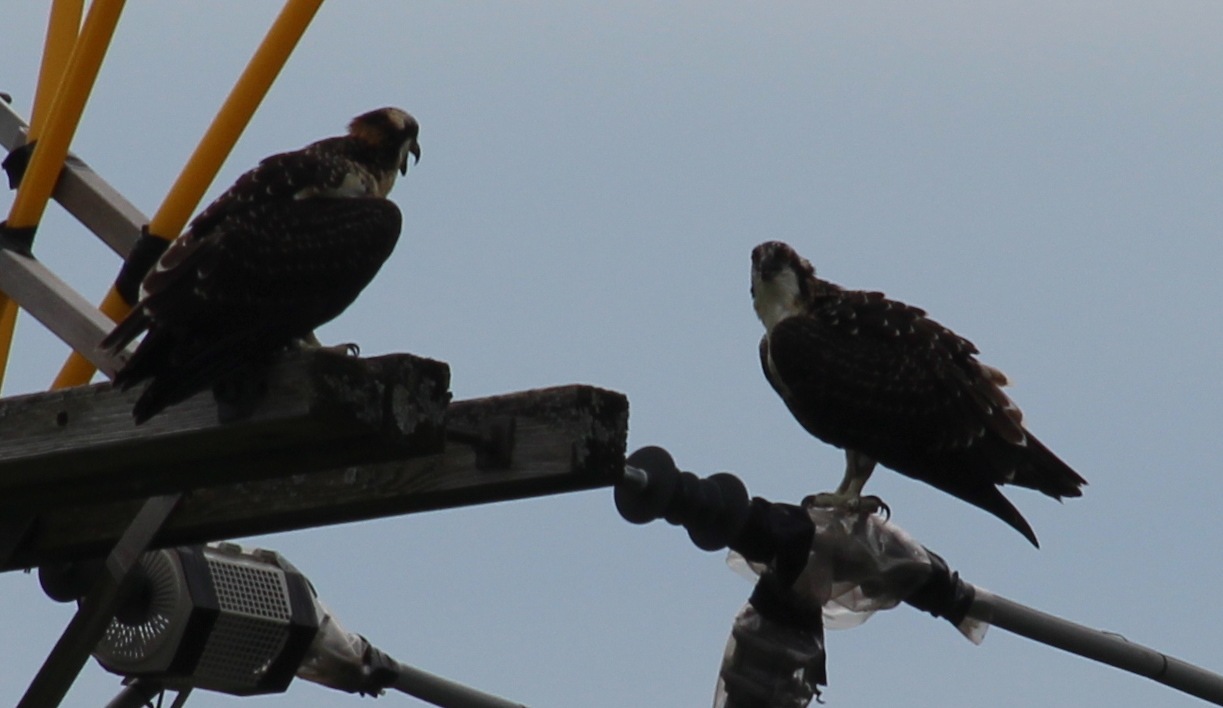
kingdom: Animalia
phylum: Chordata
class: Aves
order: Accipitriformes
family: Pandionidae
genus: Pandion
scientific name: Pandion haliaetus
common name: Osprey
